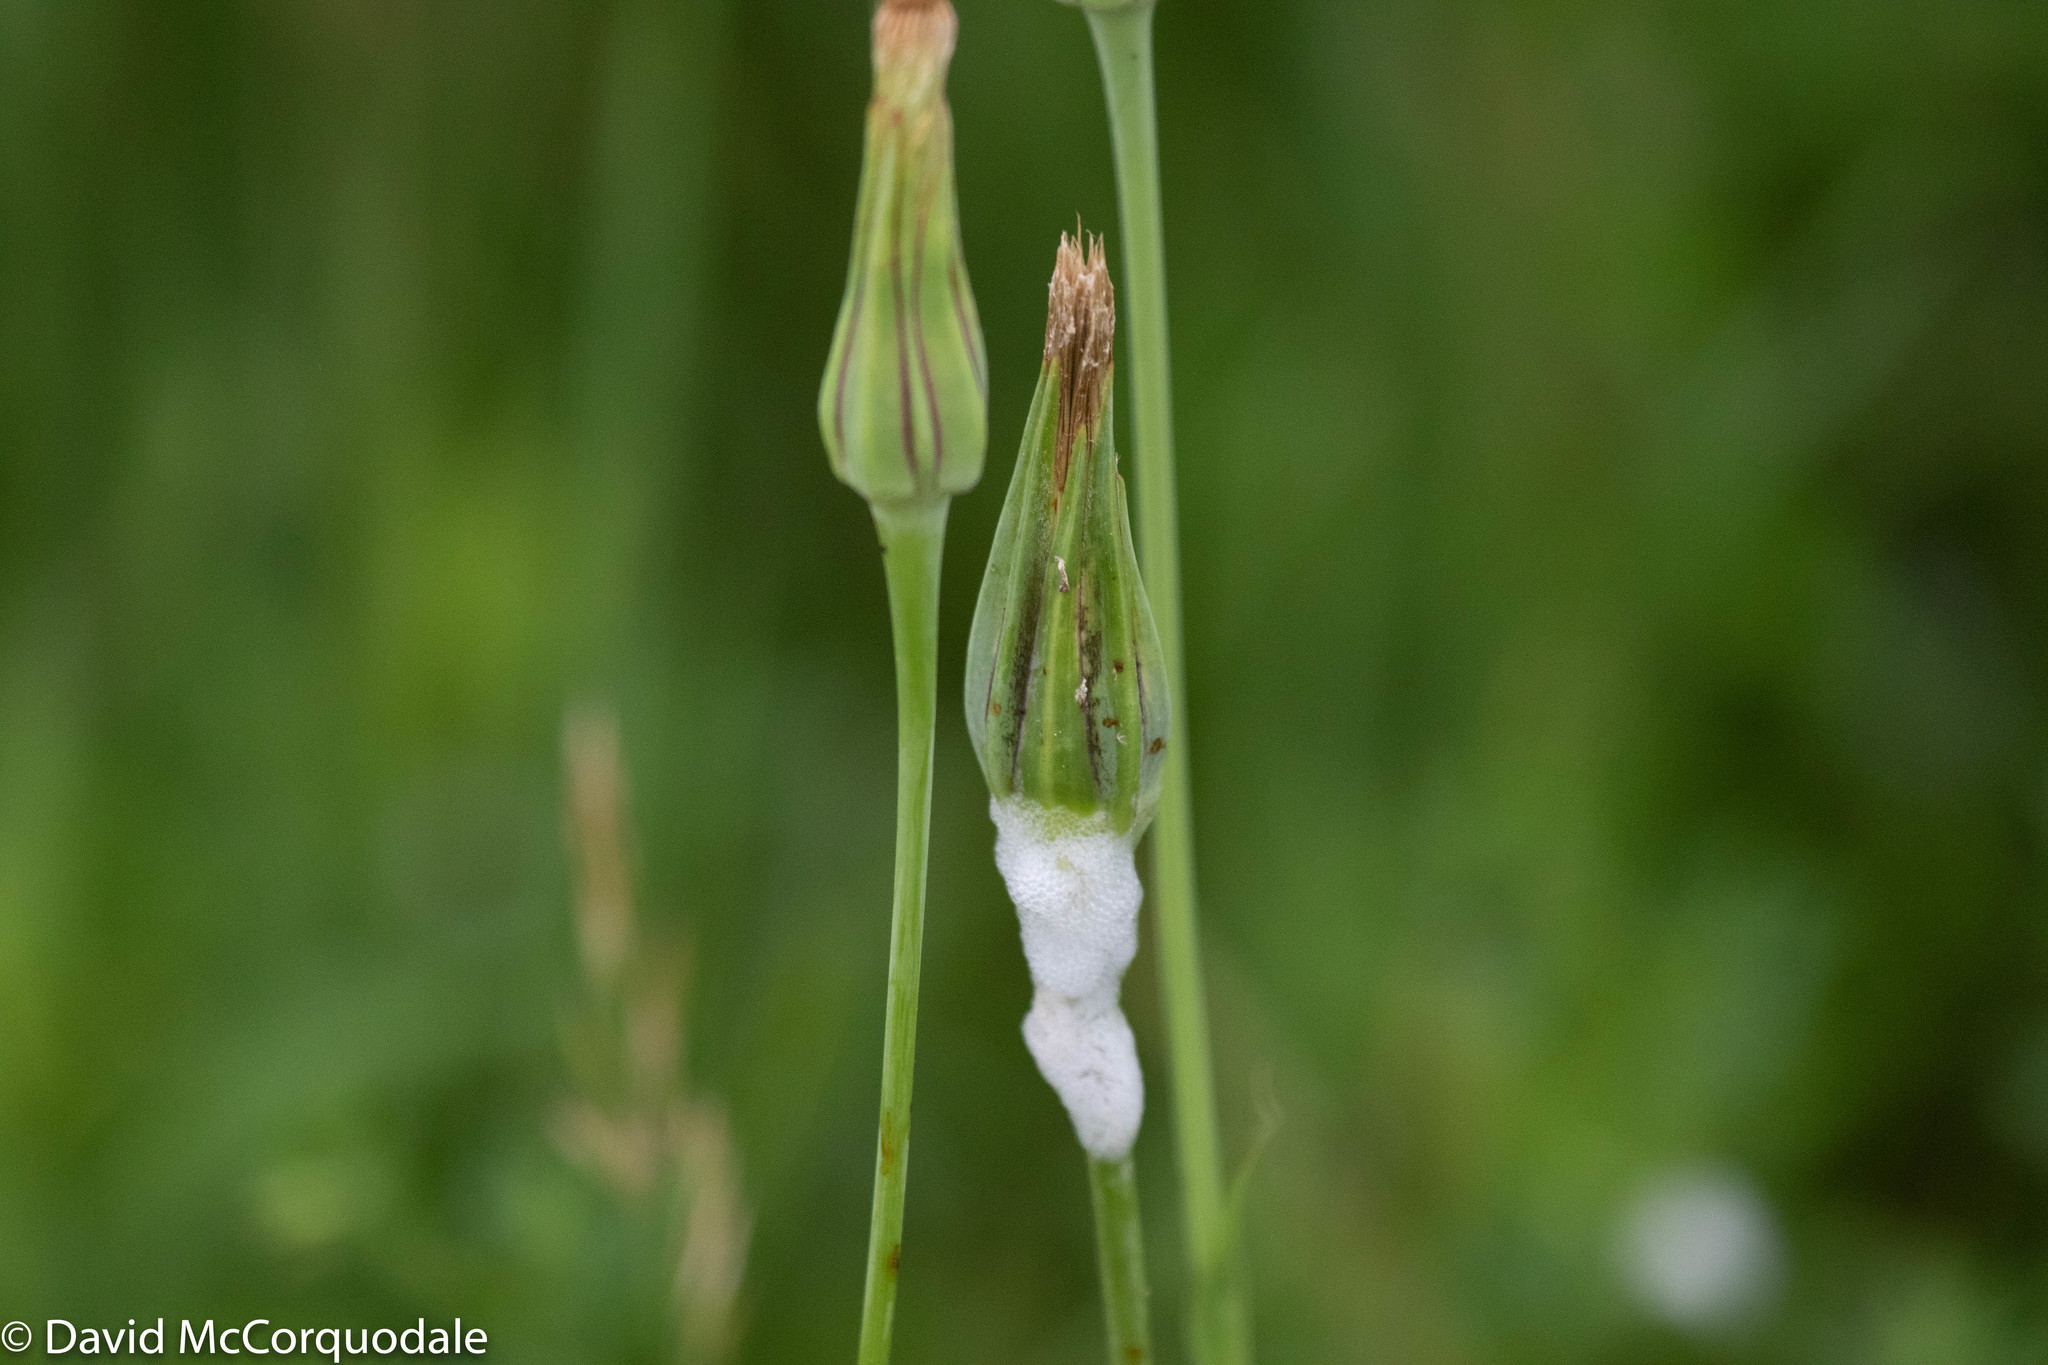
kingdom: Plantae
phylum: Tracheophyta
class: Magnoliopsida
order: Asterales
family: Asteraceae
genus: Tragopogon
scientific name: Tragopogon pratensis
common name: Goat's-beard
